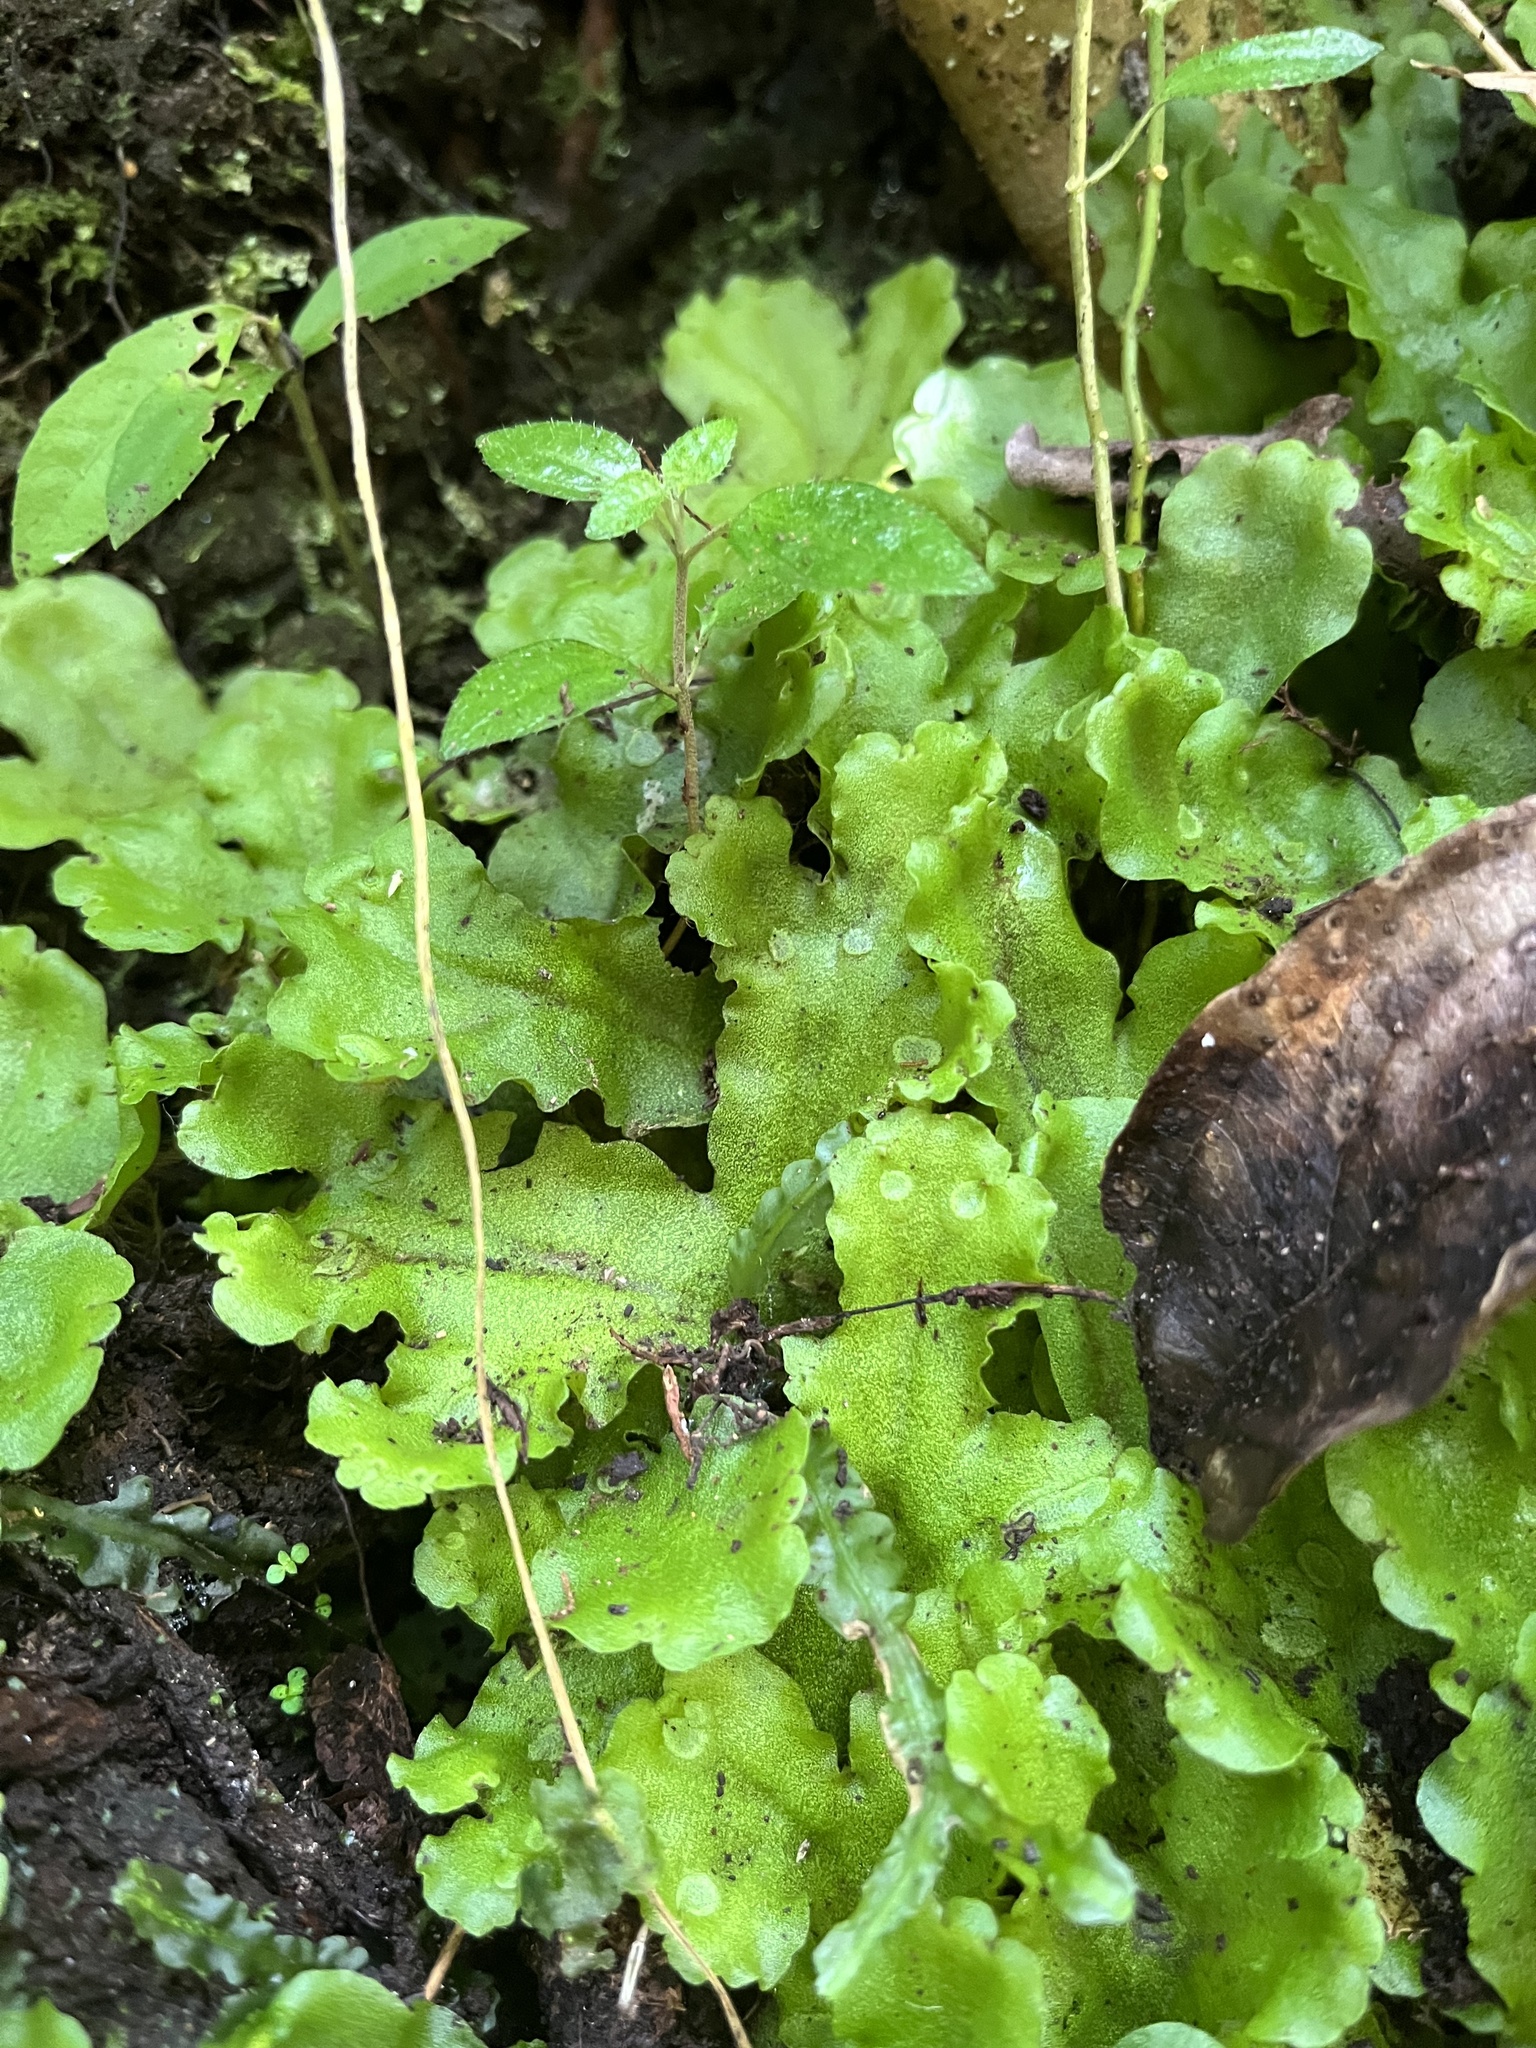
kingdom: Plantae
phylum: Marchantiophyta
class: Marchantiopsida
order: Marchantiales
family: Monocleaceae
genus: Monoclea
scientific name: Monoclea gottschei
